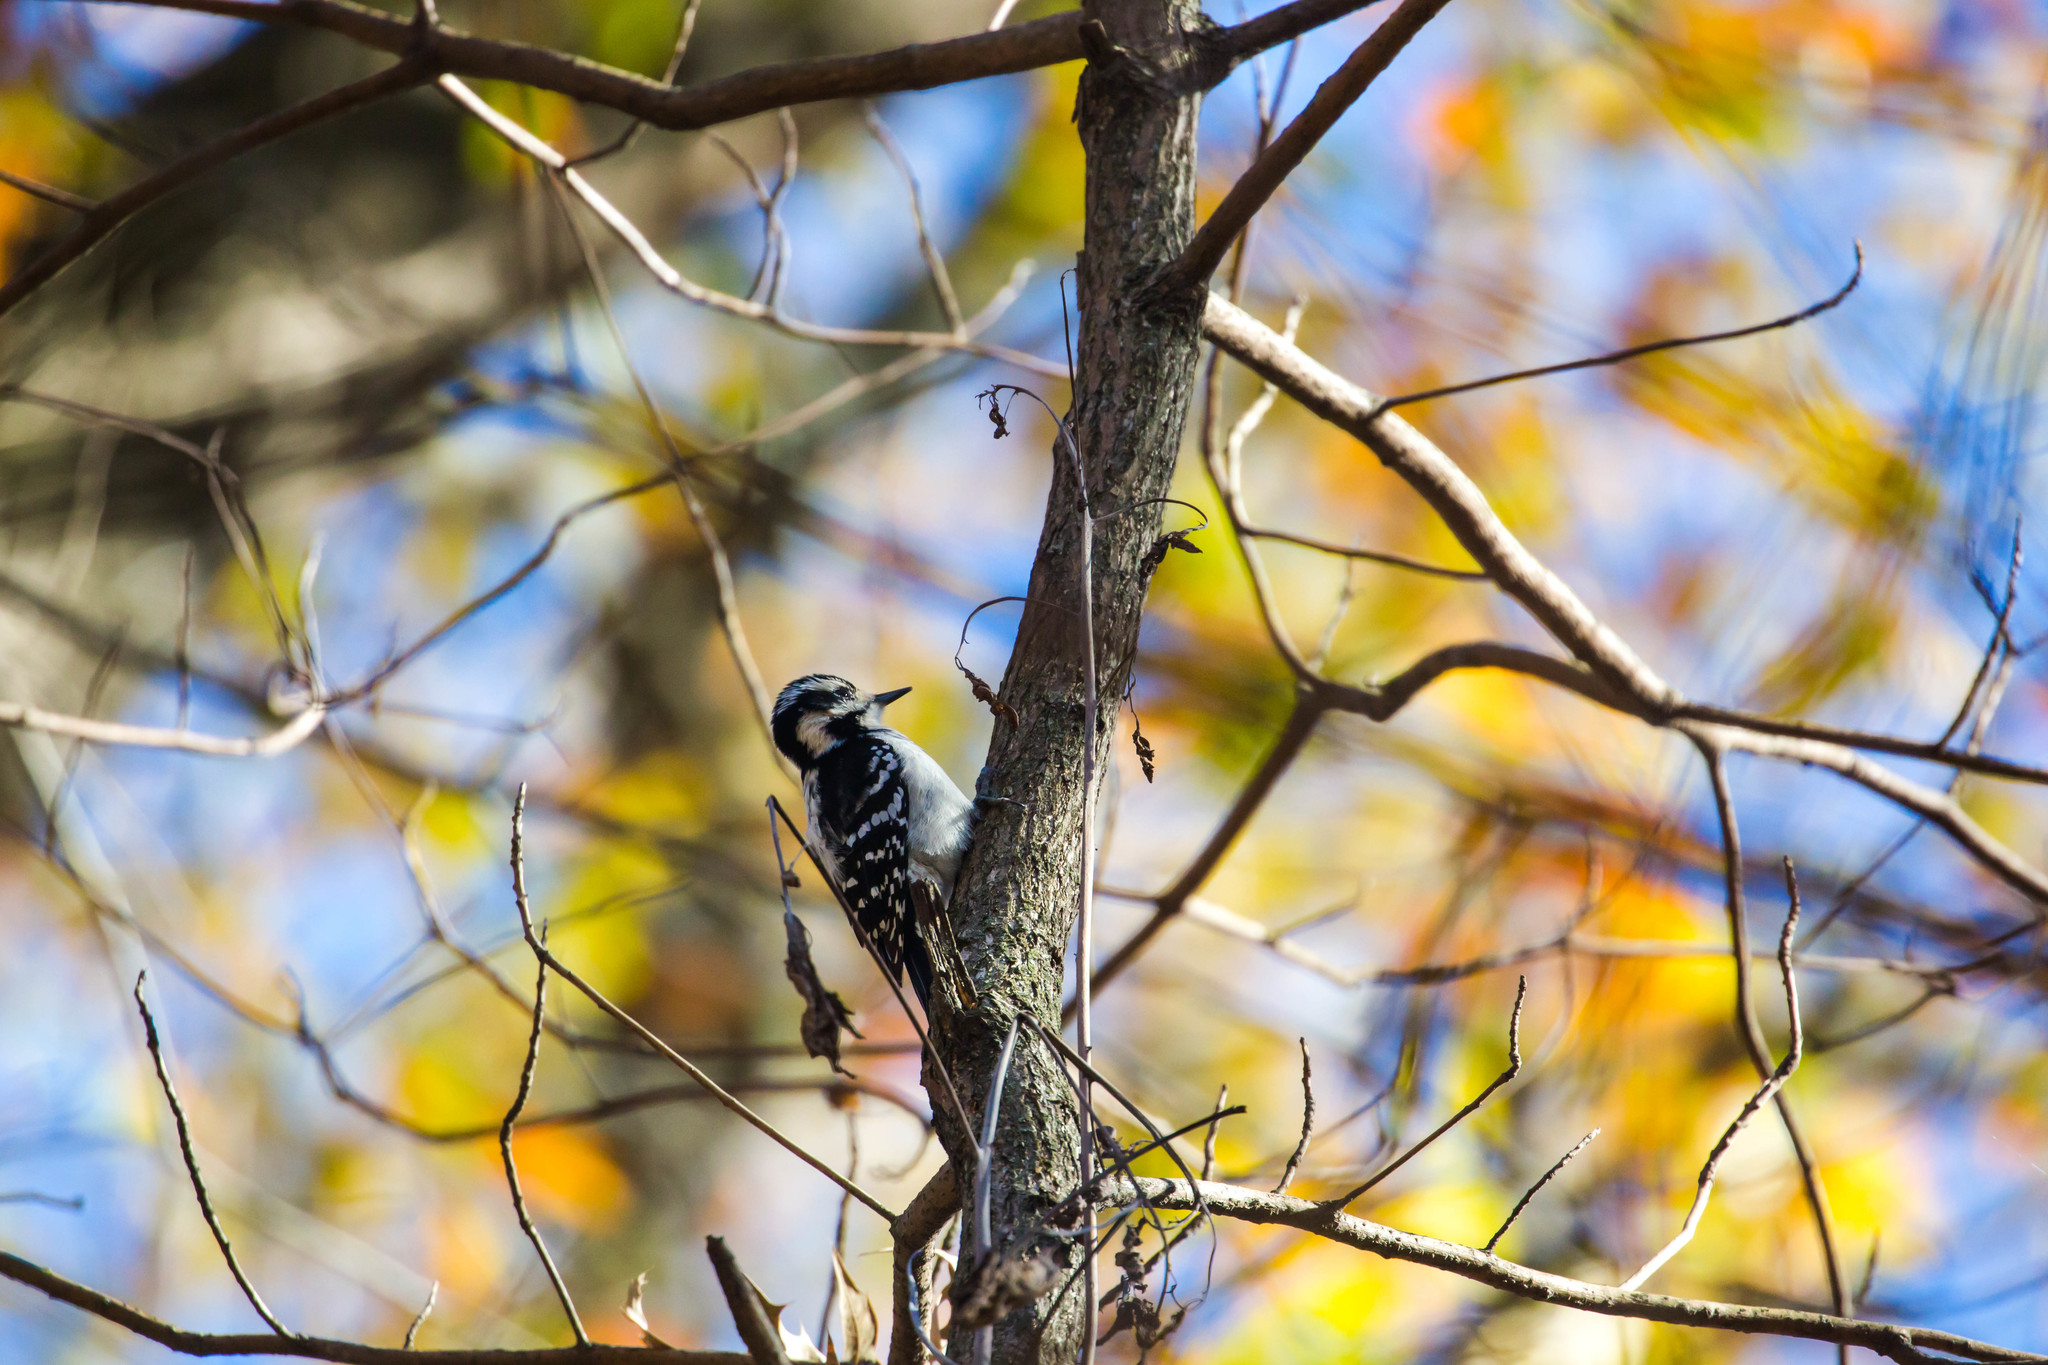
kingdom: Animalia
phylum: Chordata
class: Aves
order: Piciformes
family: Picidae
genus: Leuconotopicus
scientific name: Leuconotopicus villosus
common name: Hairy woodpecker
